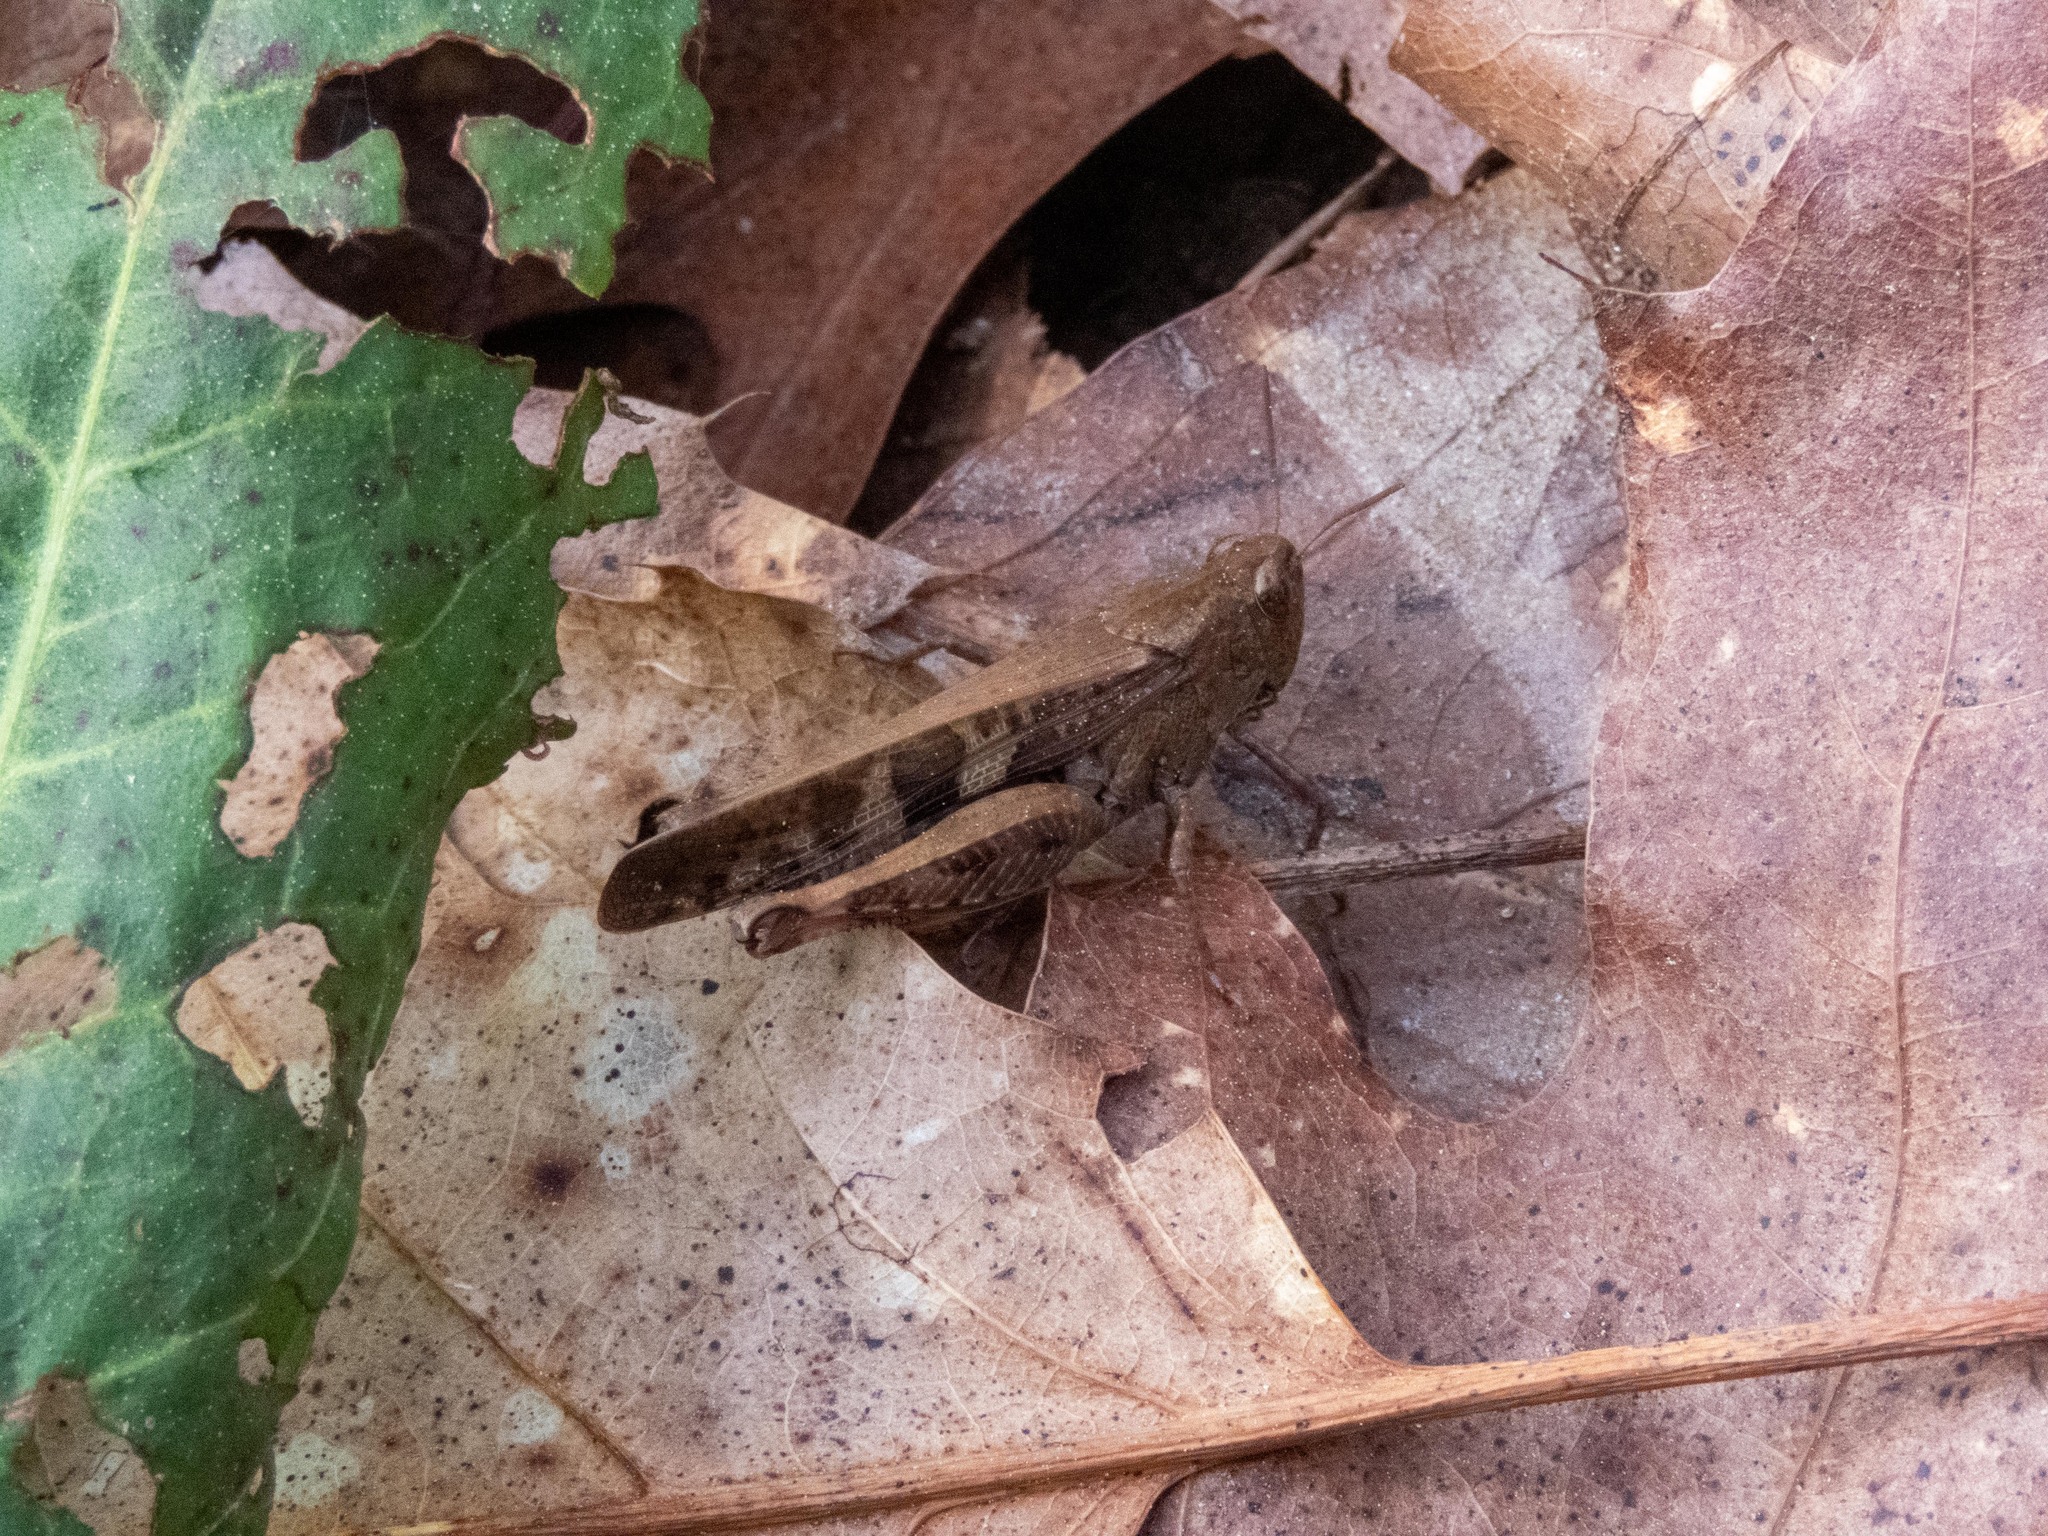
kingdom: Animalia
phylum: Arthropoda
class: Insecta
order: Orthoptera
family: Acrididae
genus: Aiolopus
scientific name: Aiolopus strepens
